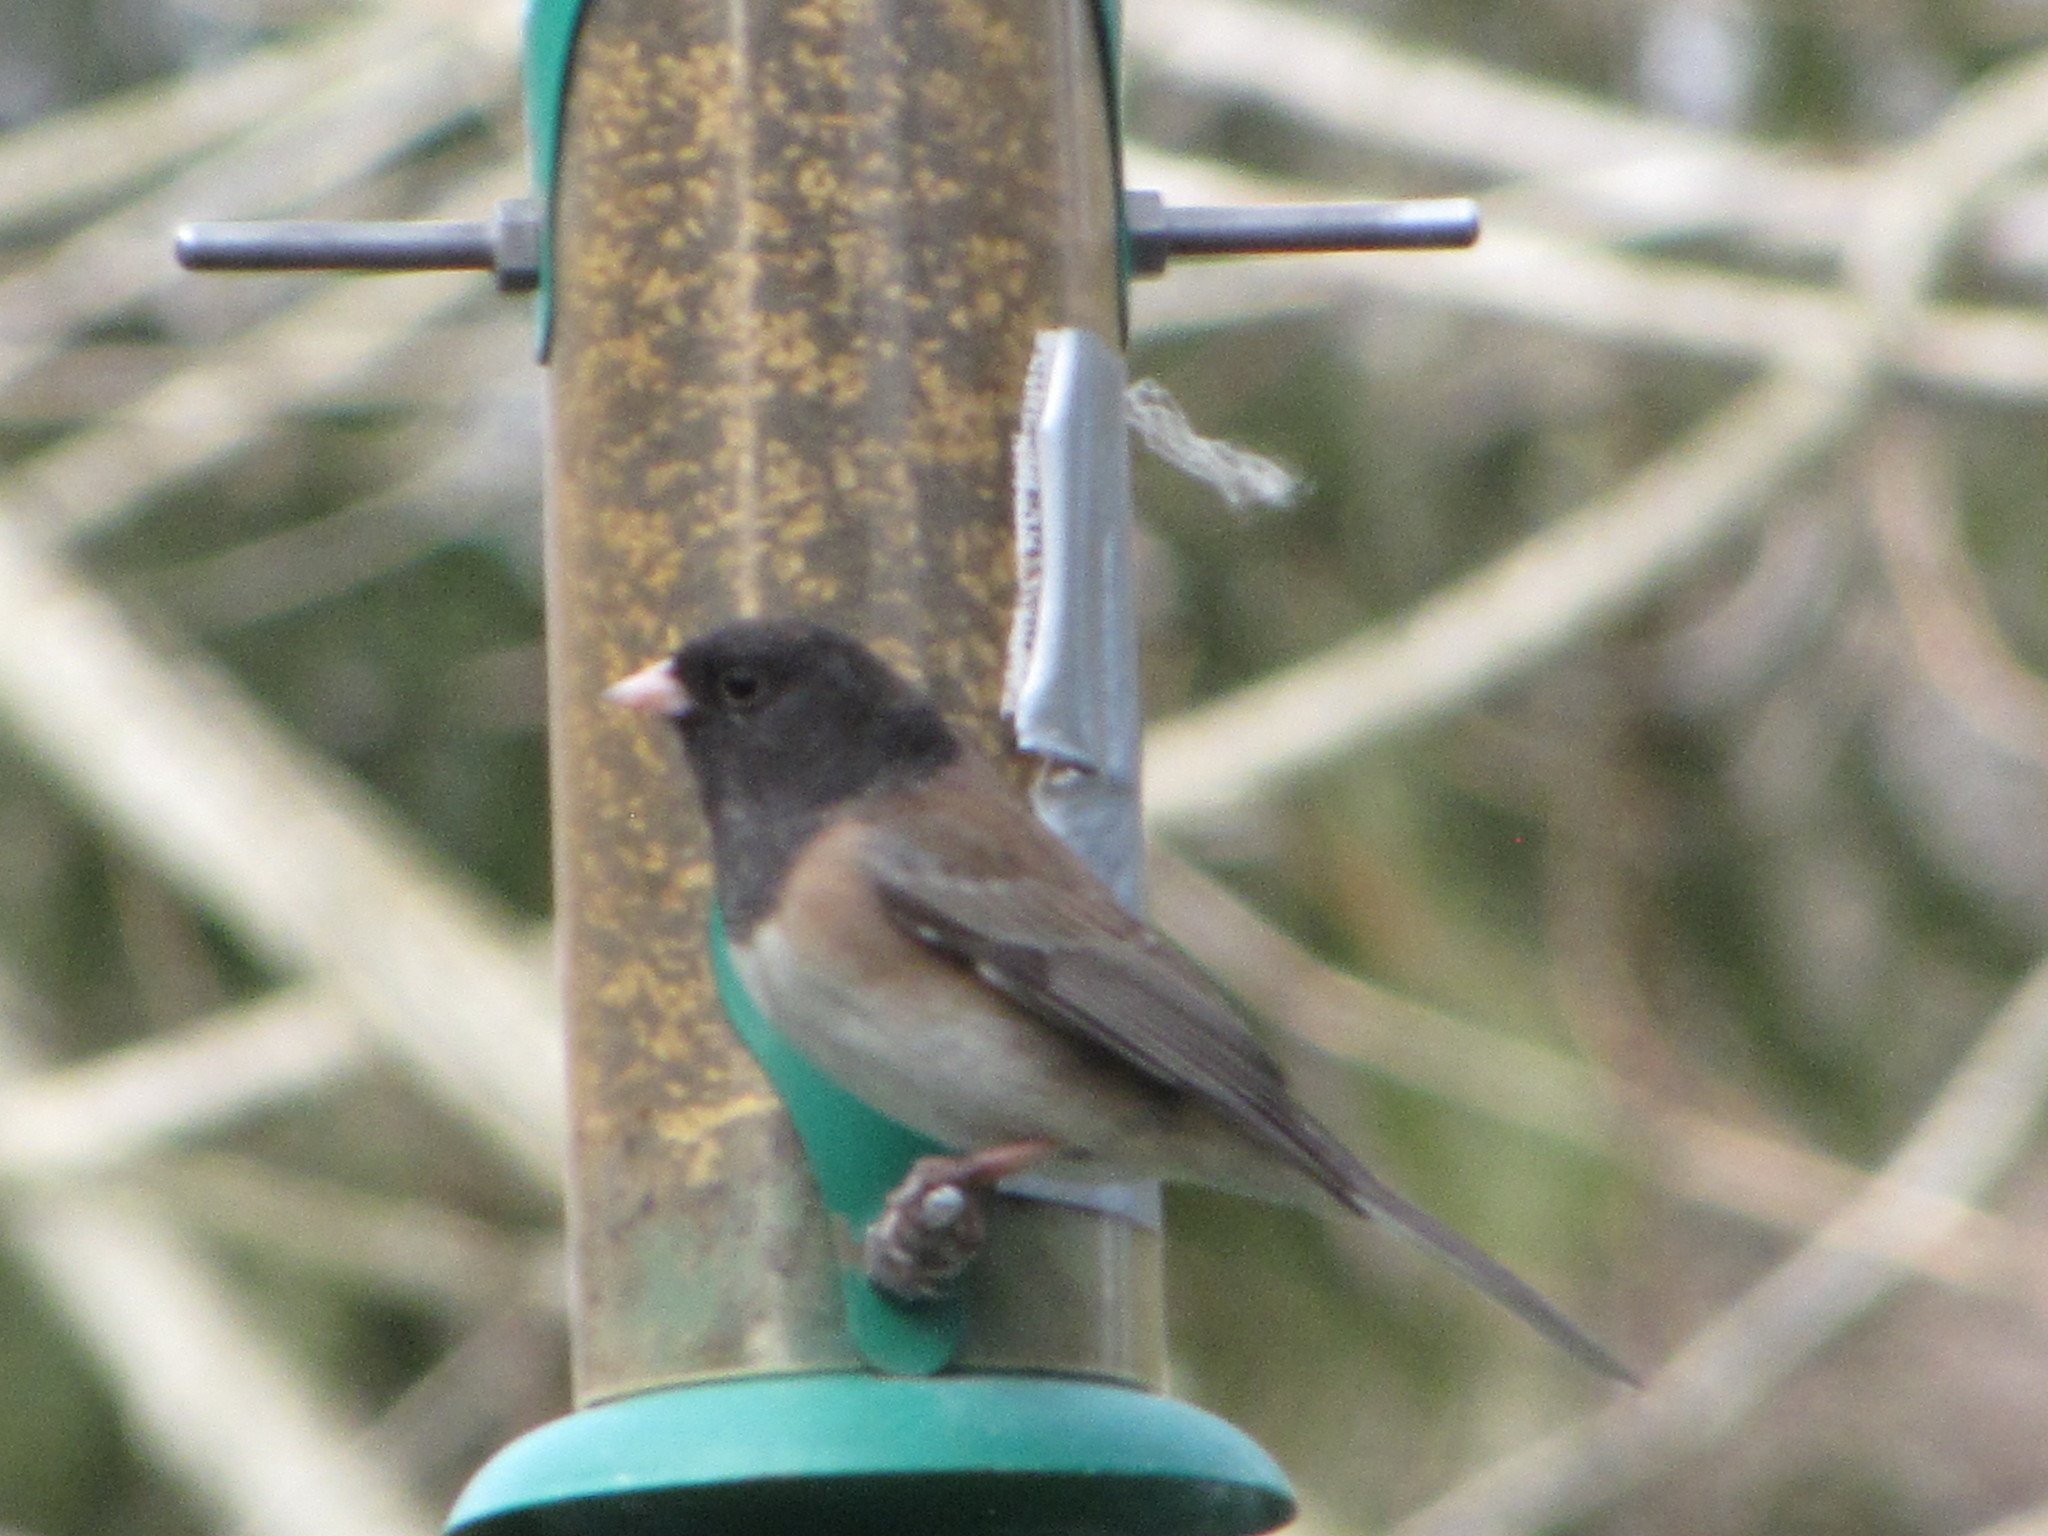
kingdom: Animalia
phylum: Chordata
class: Aves
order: Passeriformes
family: Passerellidae
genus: Junco
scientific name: Junco hyemalis
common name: Dark-eyed junco
